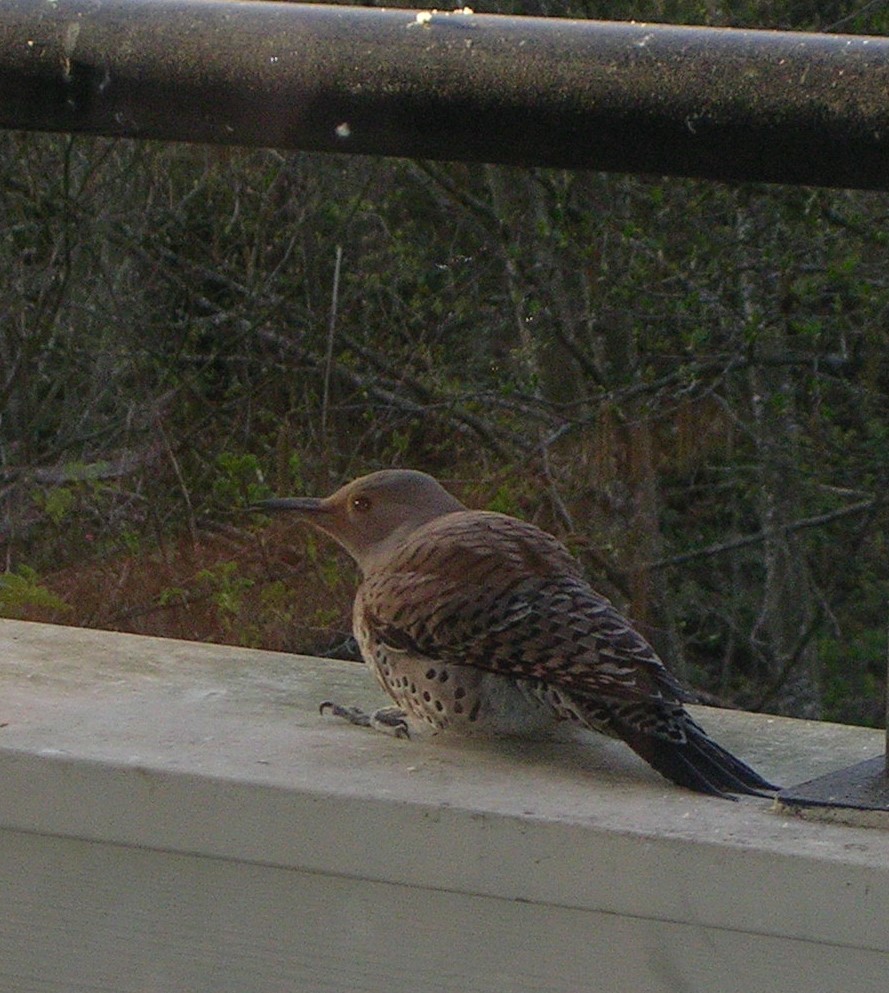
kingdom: Animalia
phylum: Chordata
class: Aves
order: Piciformes
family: Picidae
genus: Colaptes
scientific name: Colaptes auratus
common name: Northern flicker
